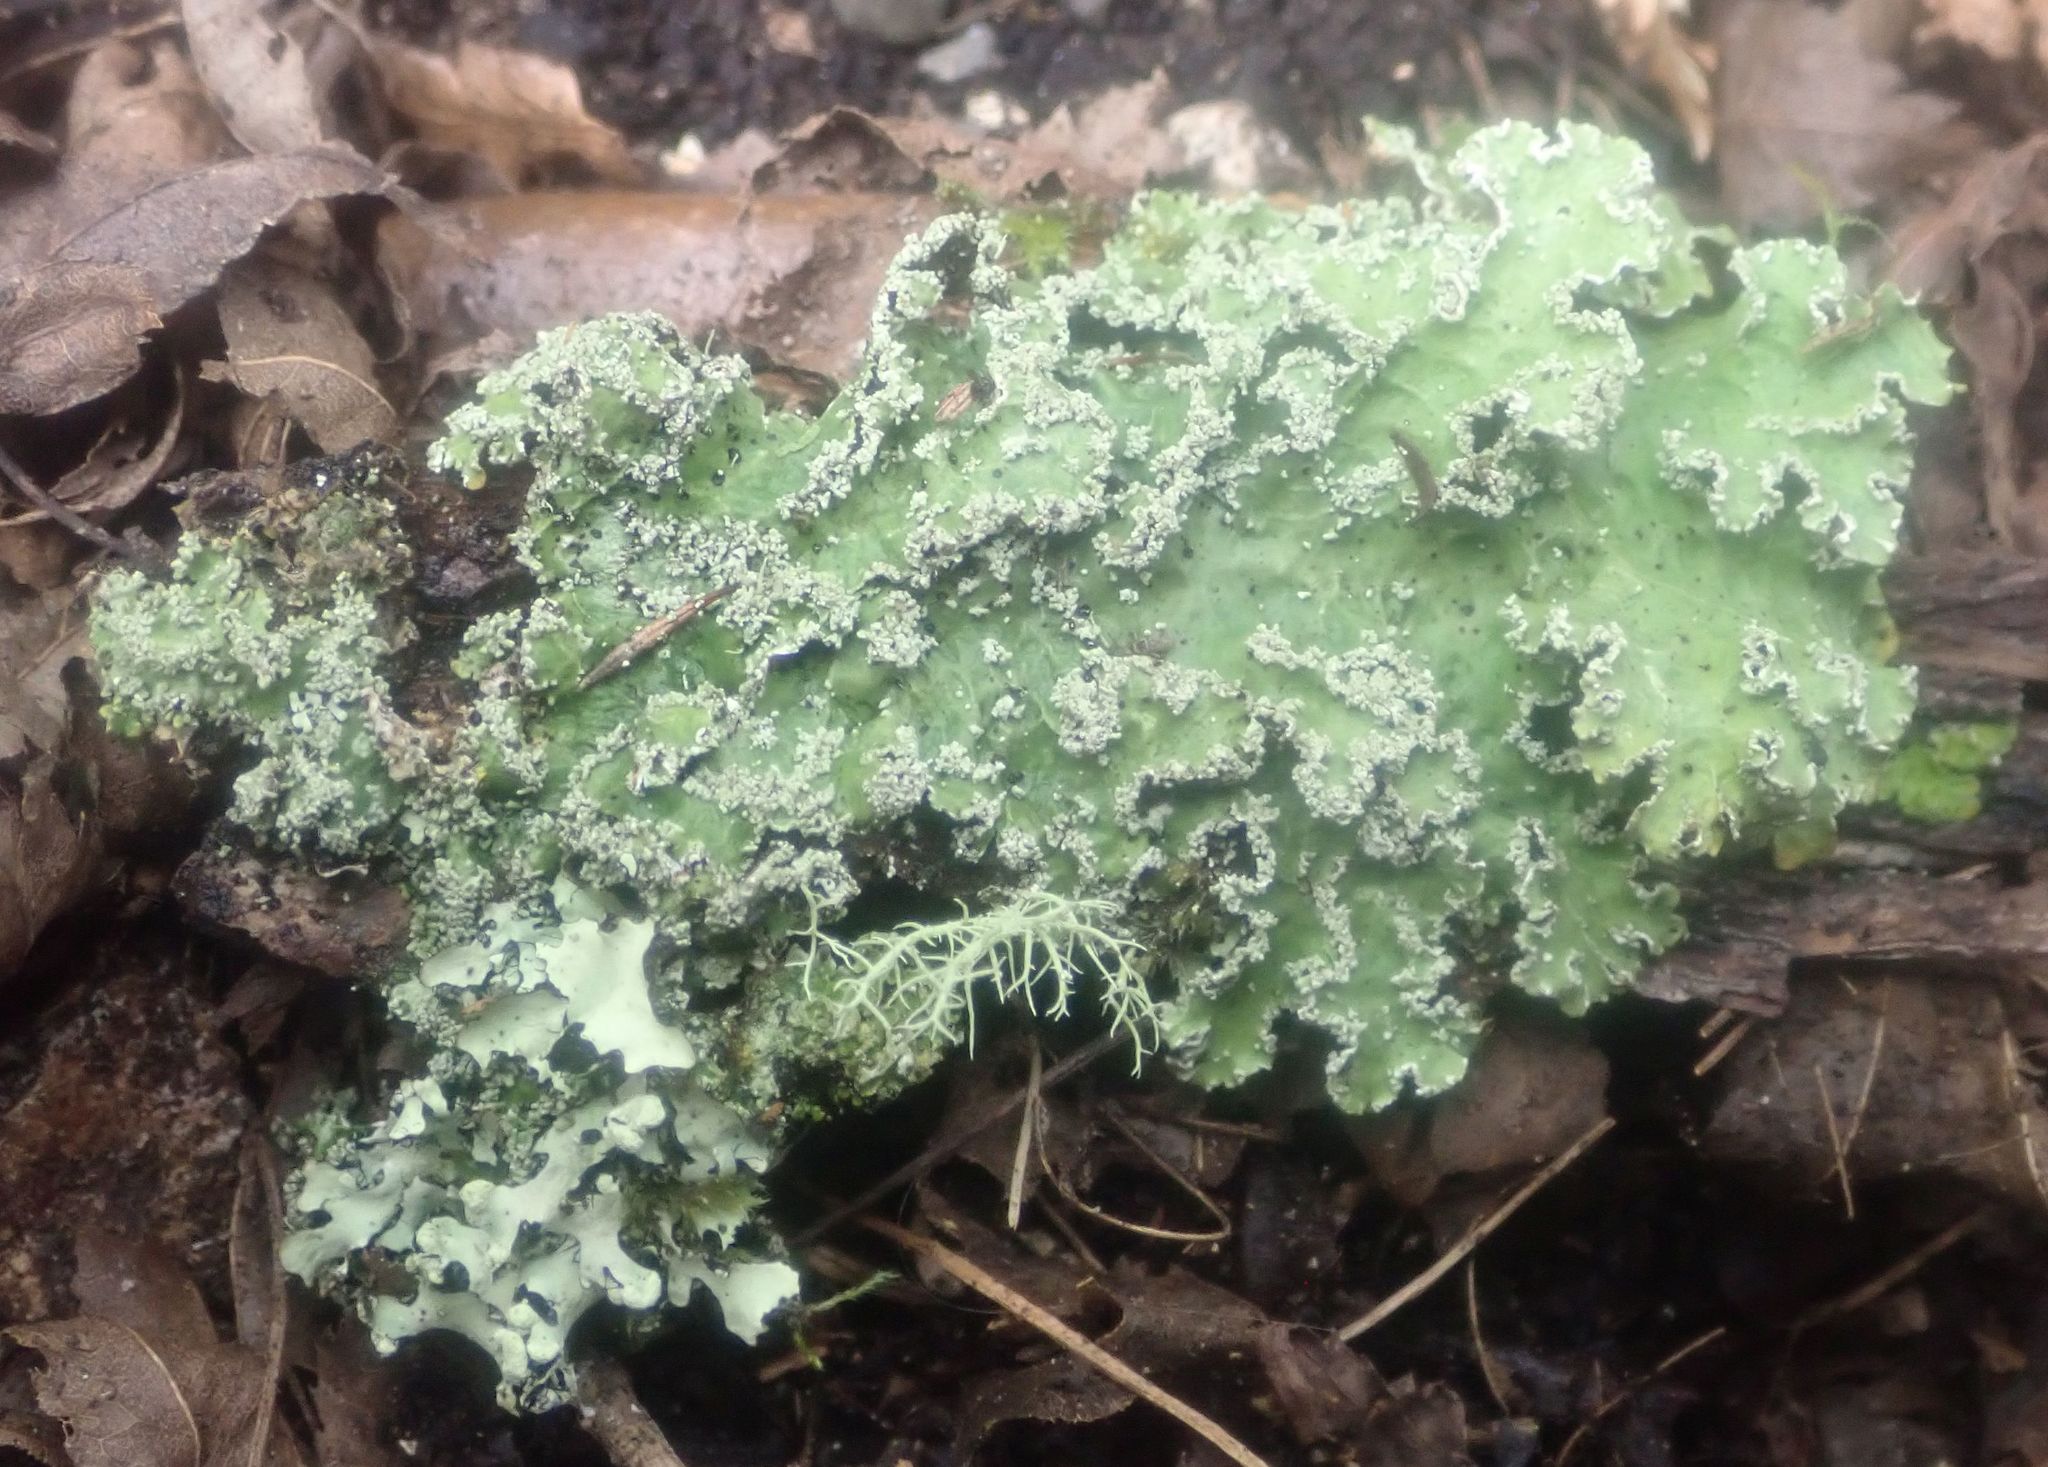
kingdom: Fungi
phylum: Ascomycota
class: Lecanoromycetes
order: Peltigerales
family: Lobariaceae
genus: Pseudocyphellaria
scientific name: Pseudocyphellaria granulata
